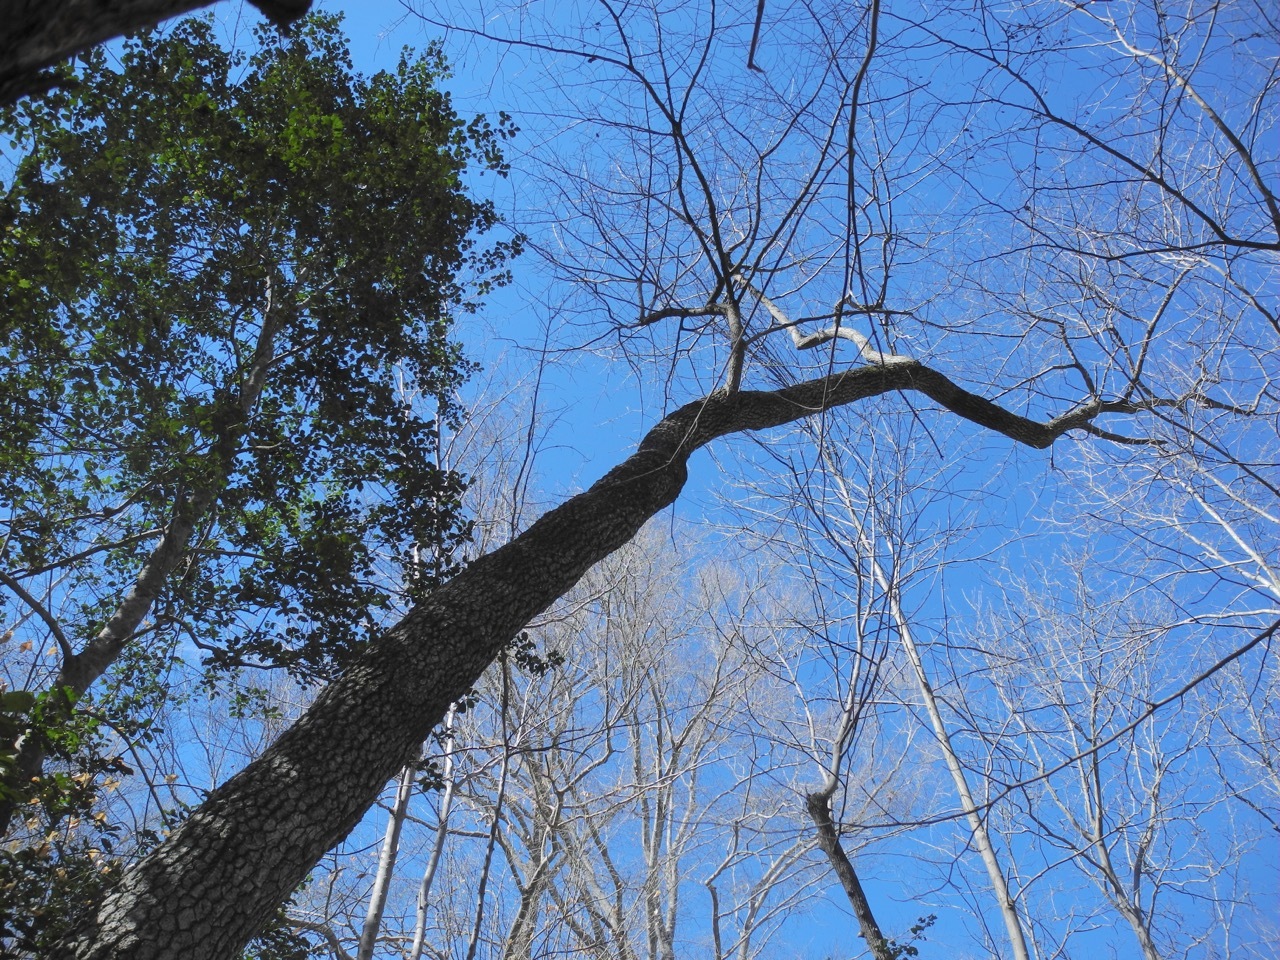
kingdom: Plantae
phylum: Tracheophyta
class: Magnoliopsida
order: Ericales
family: Ericaceae
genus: Oxydendrum
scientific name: Oxydendrum arboreum
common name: Sourwood
